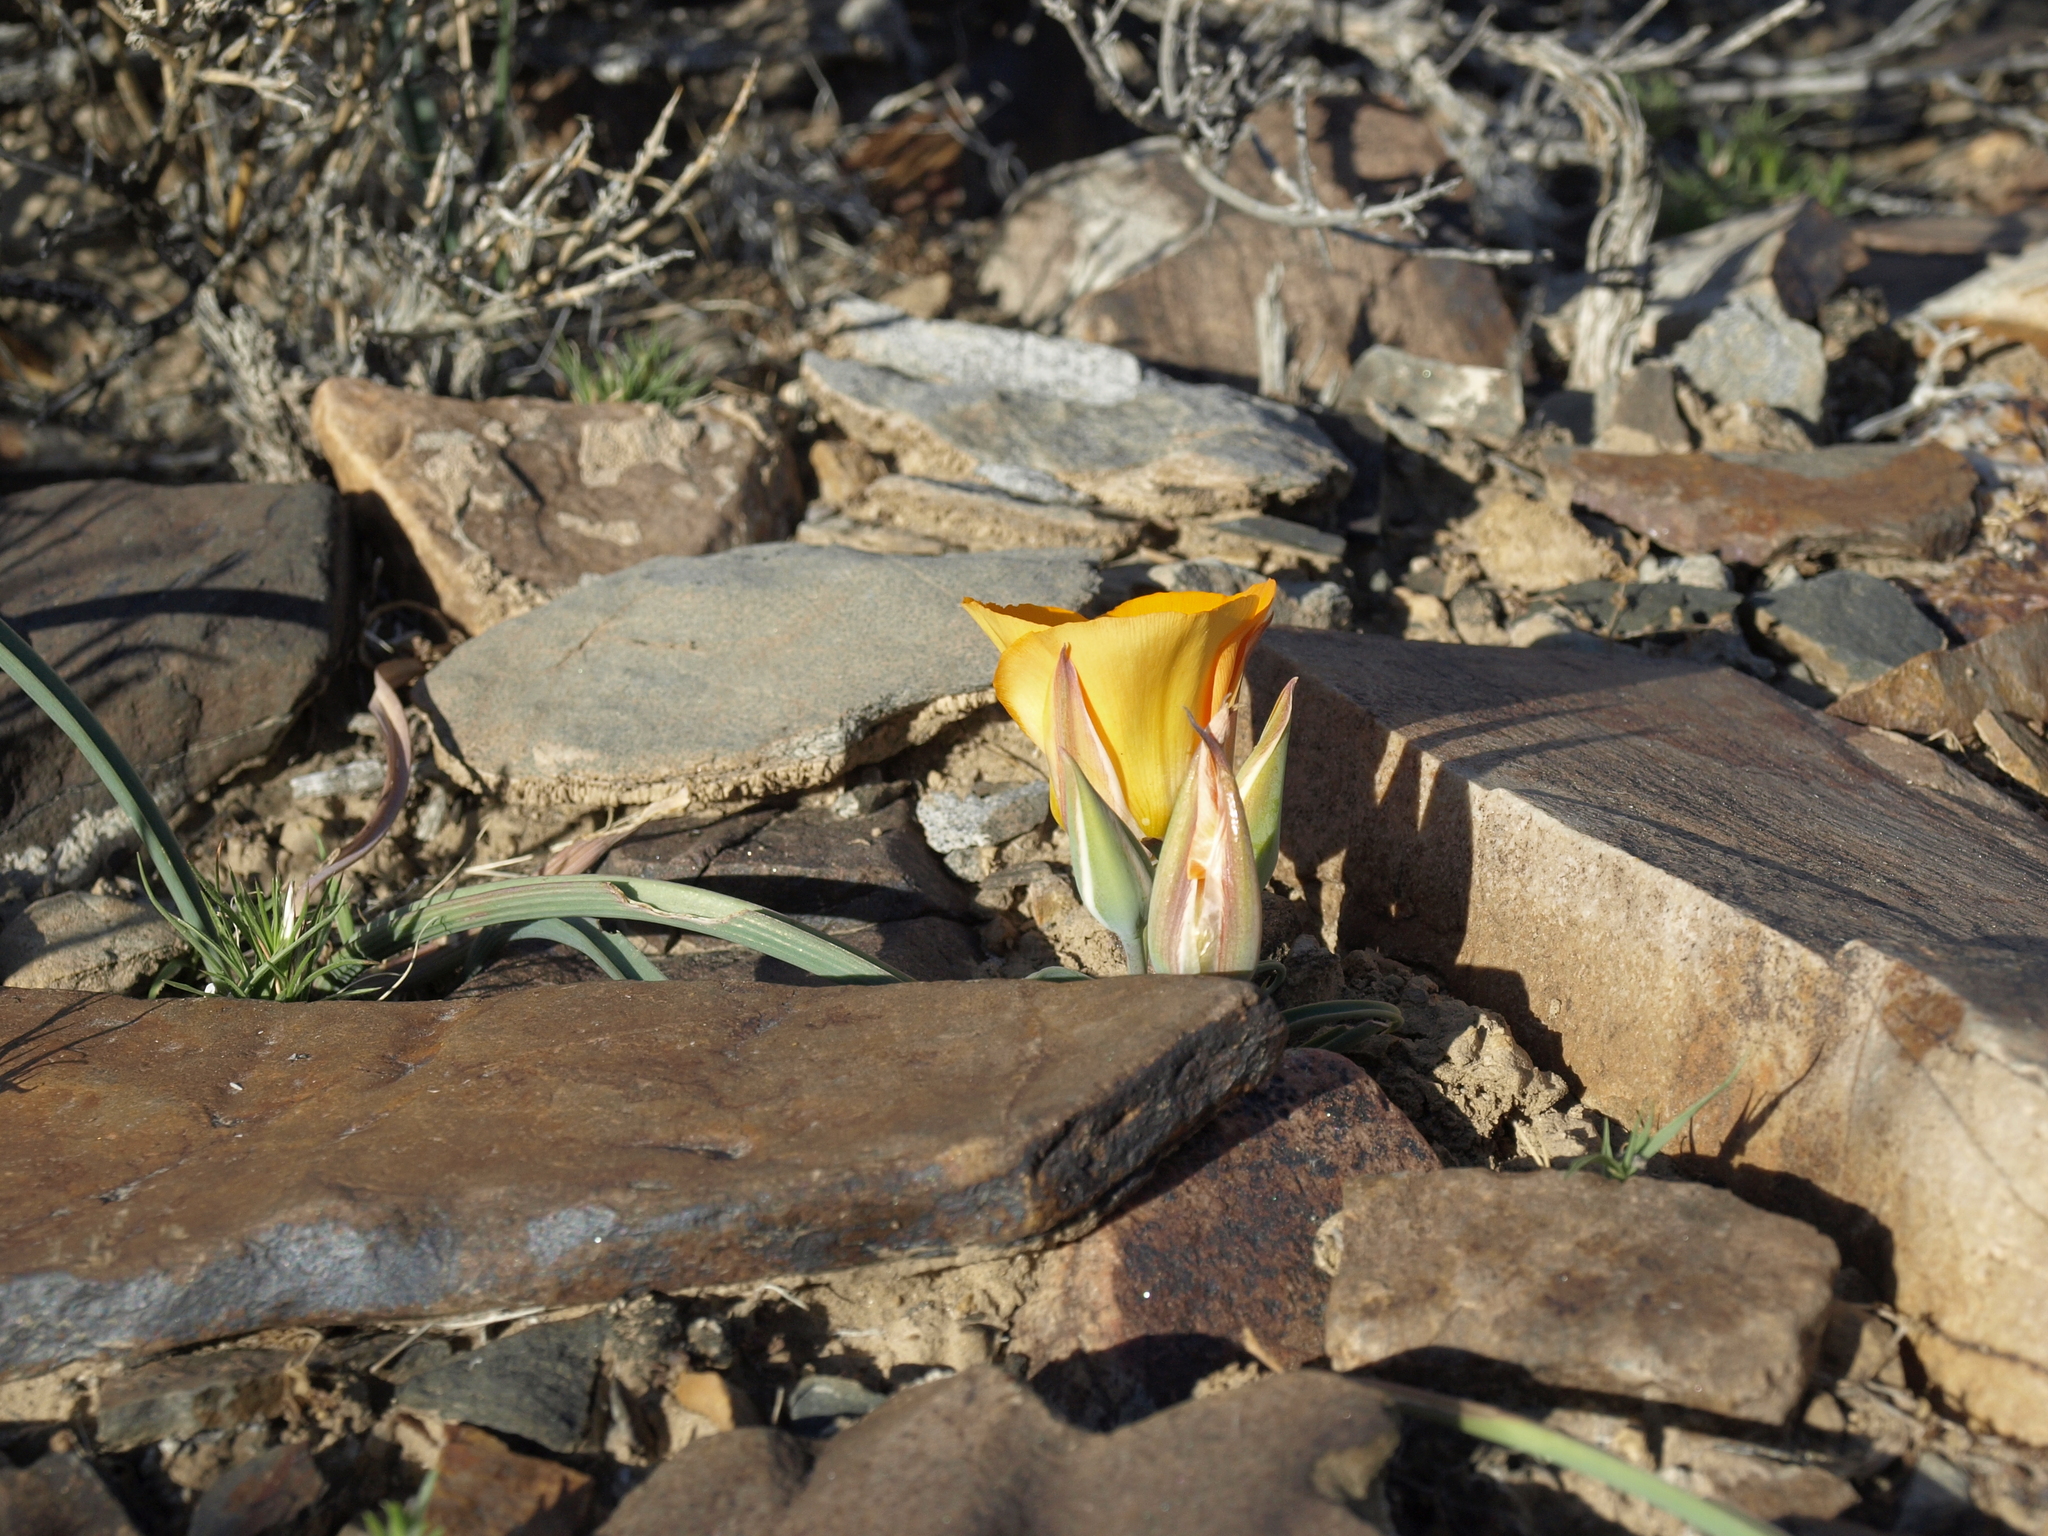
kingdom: Plantae
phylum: Tracheophyta
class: Liliopsida
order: Liliales
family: Liliaceae
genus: Calochortus
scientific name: Calochortus kennedyi
